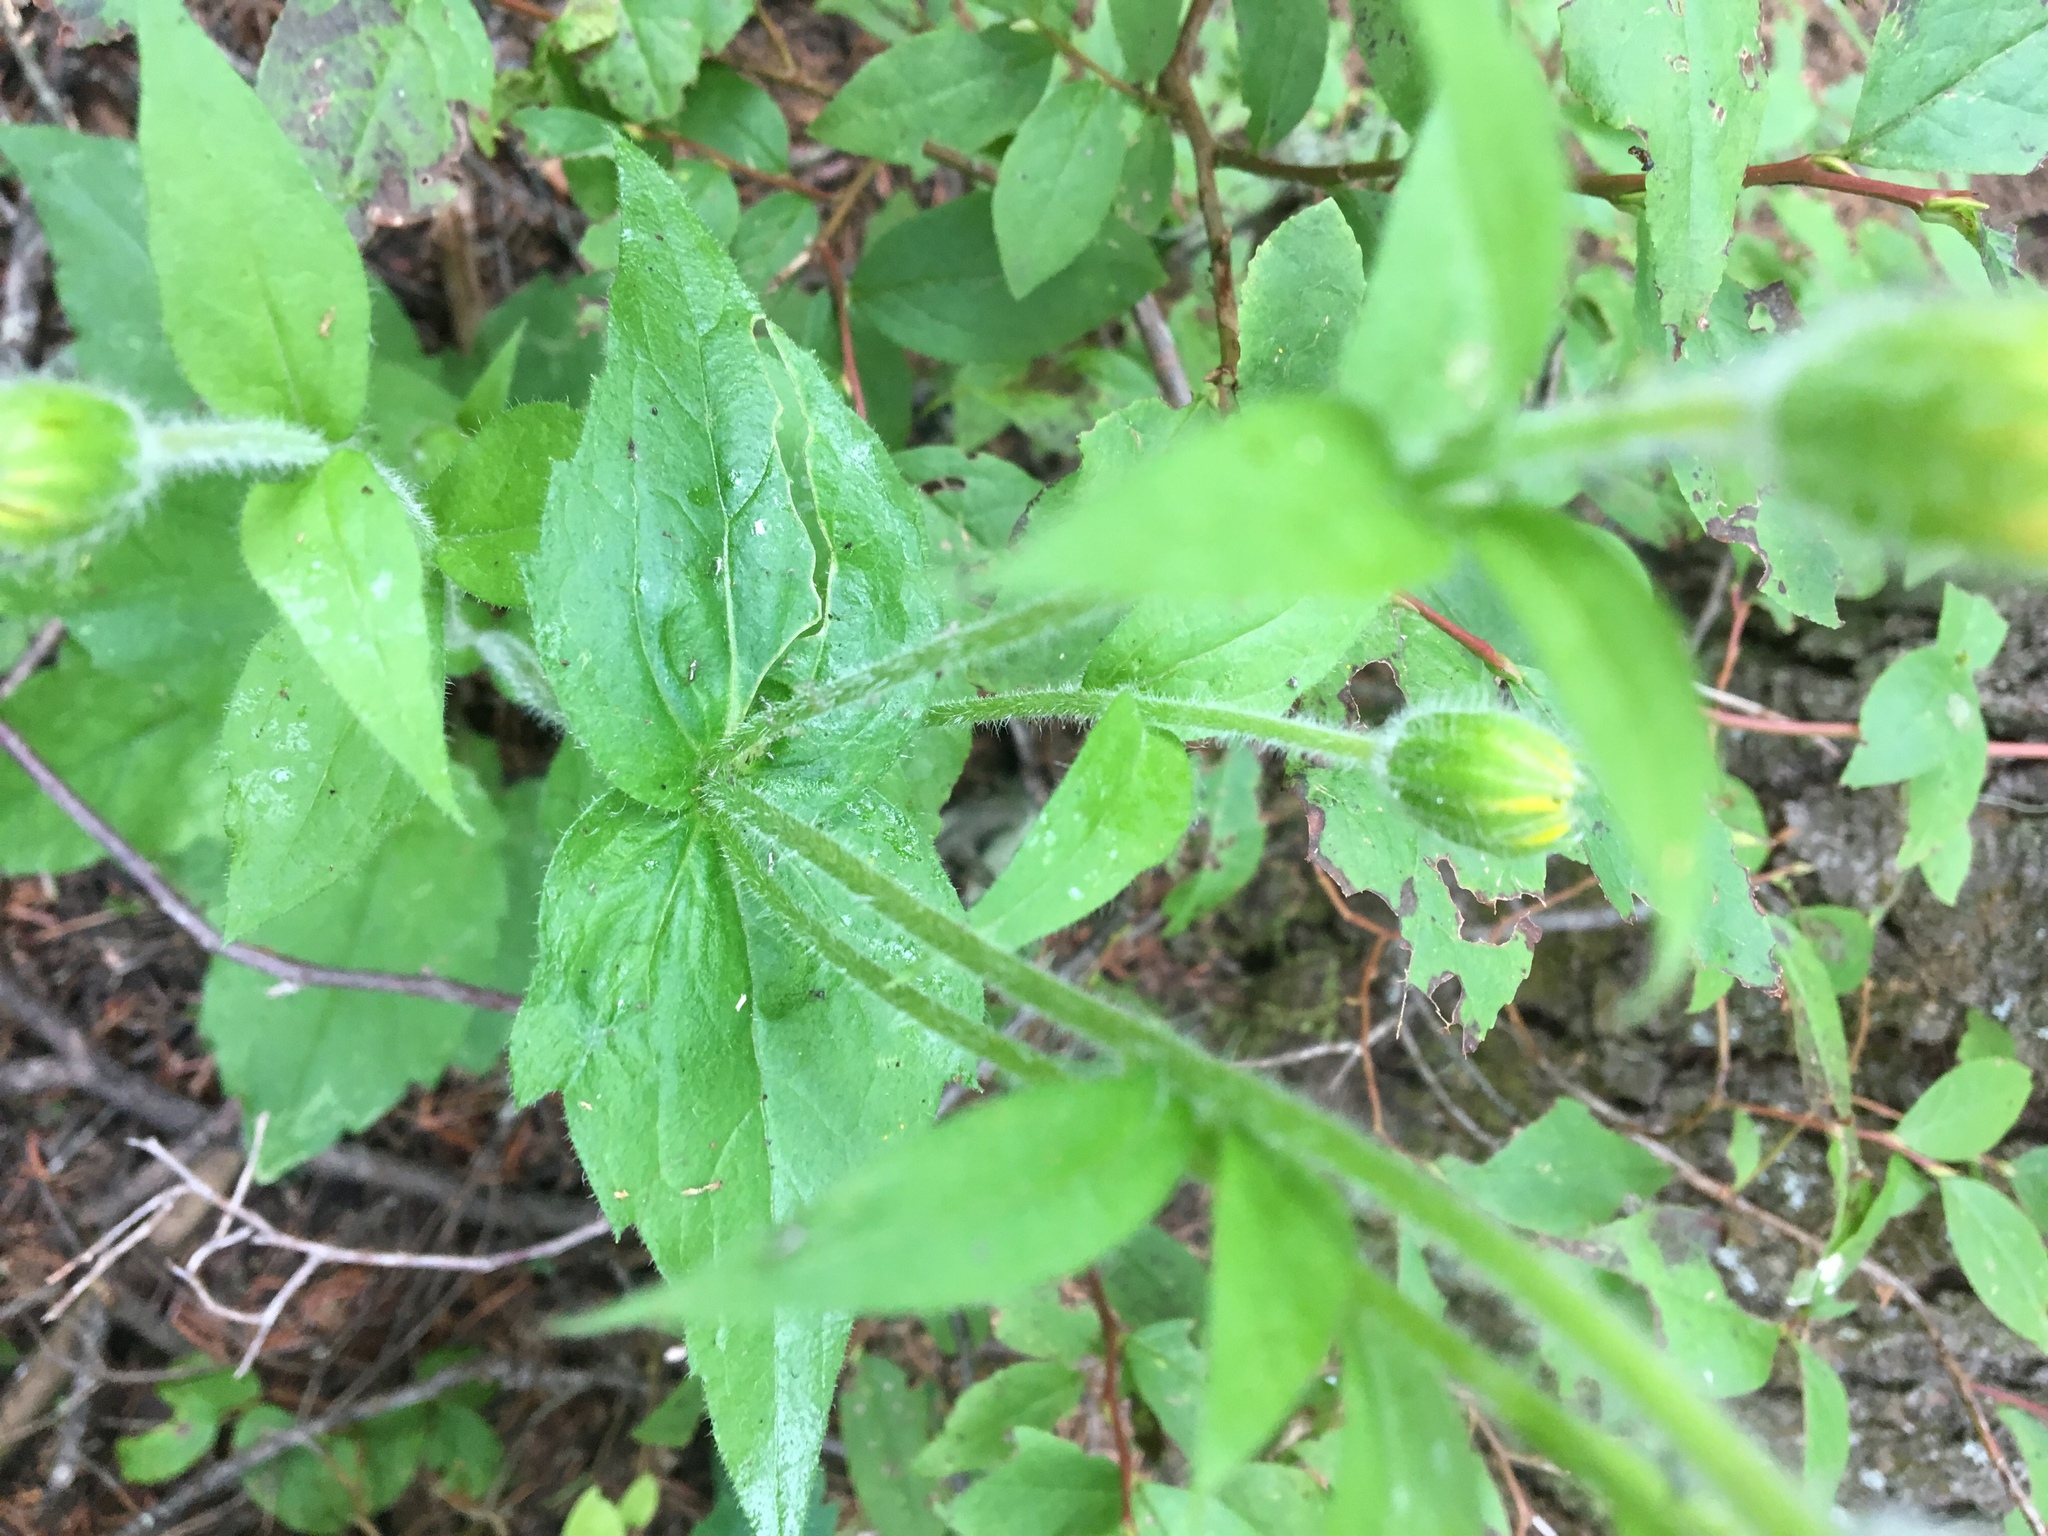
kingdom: Plantae
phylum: Tracheophyta
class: Magnoliopsida
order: Asterales
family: Asteraceae
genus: Arnica
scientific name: Arnica cordifolia
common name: Heart-leaf arnica
